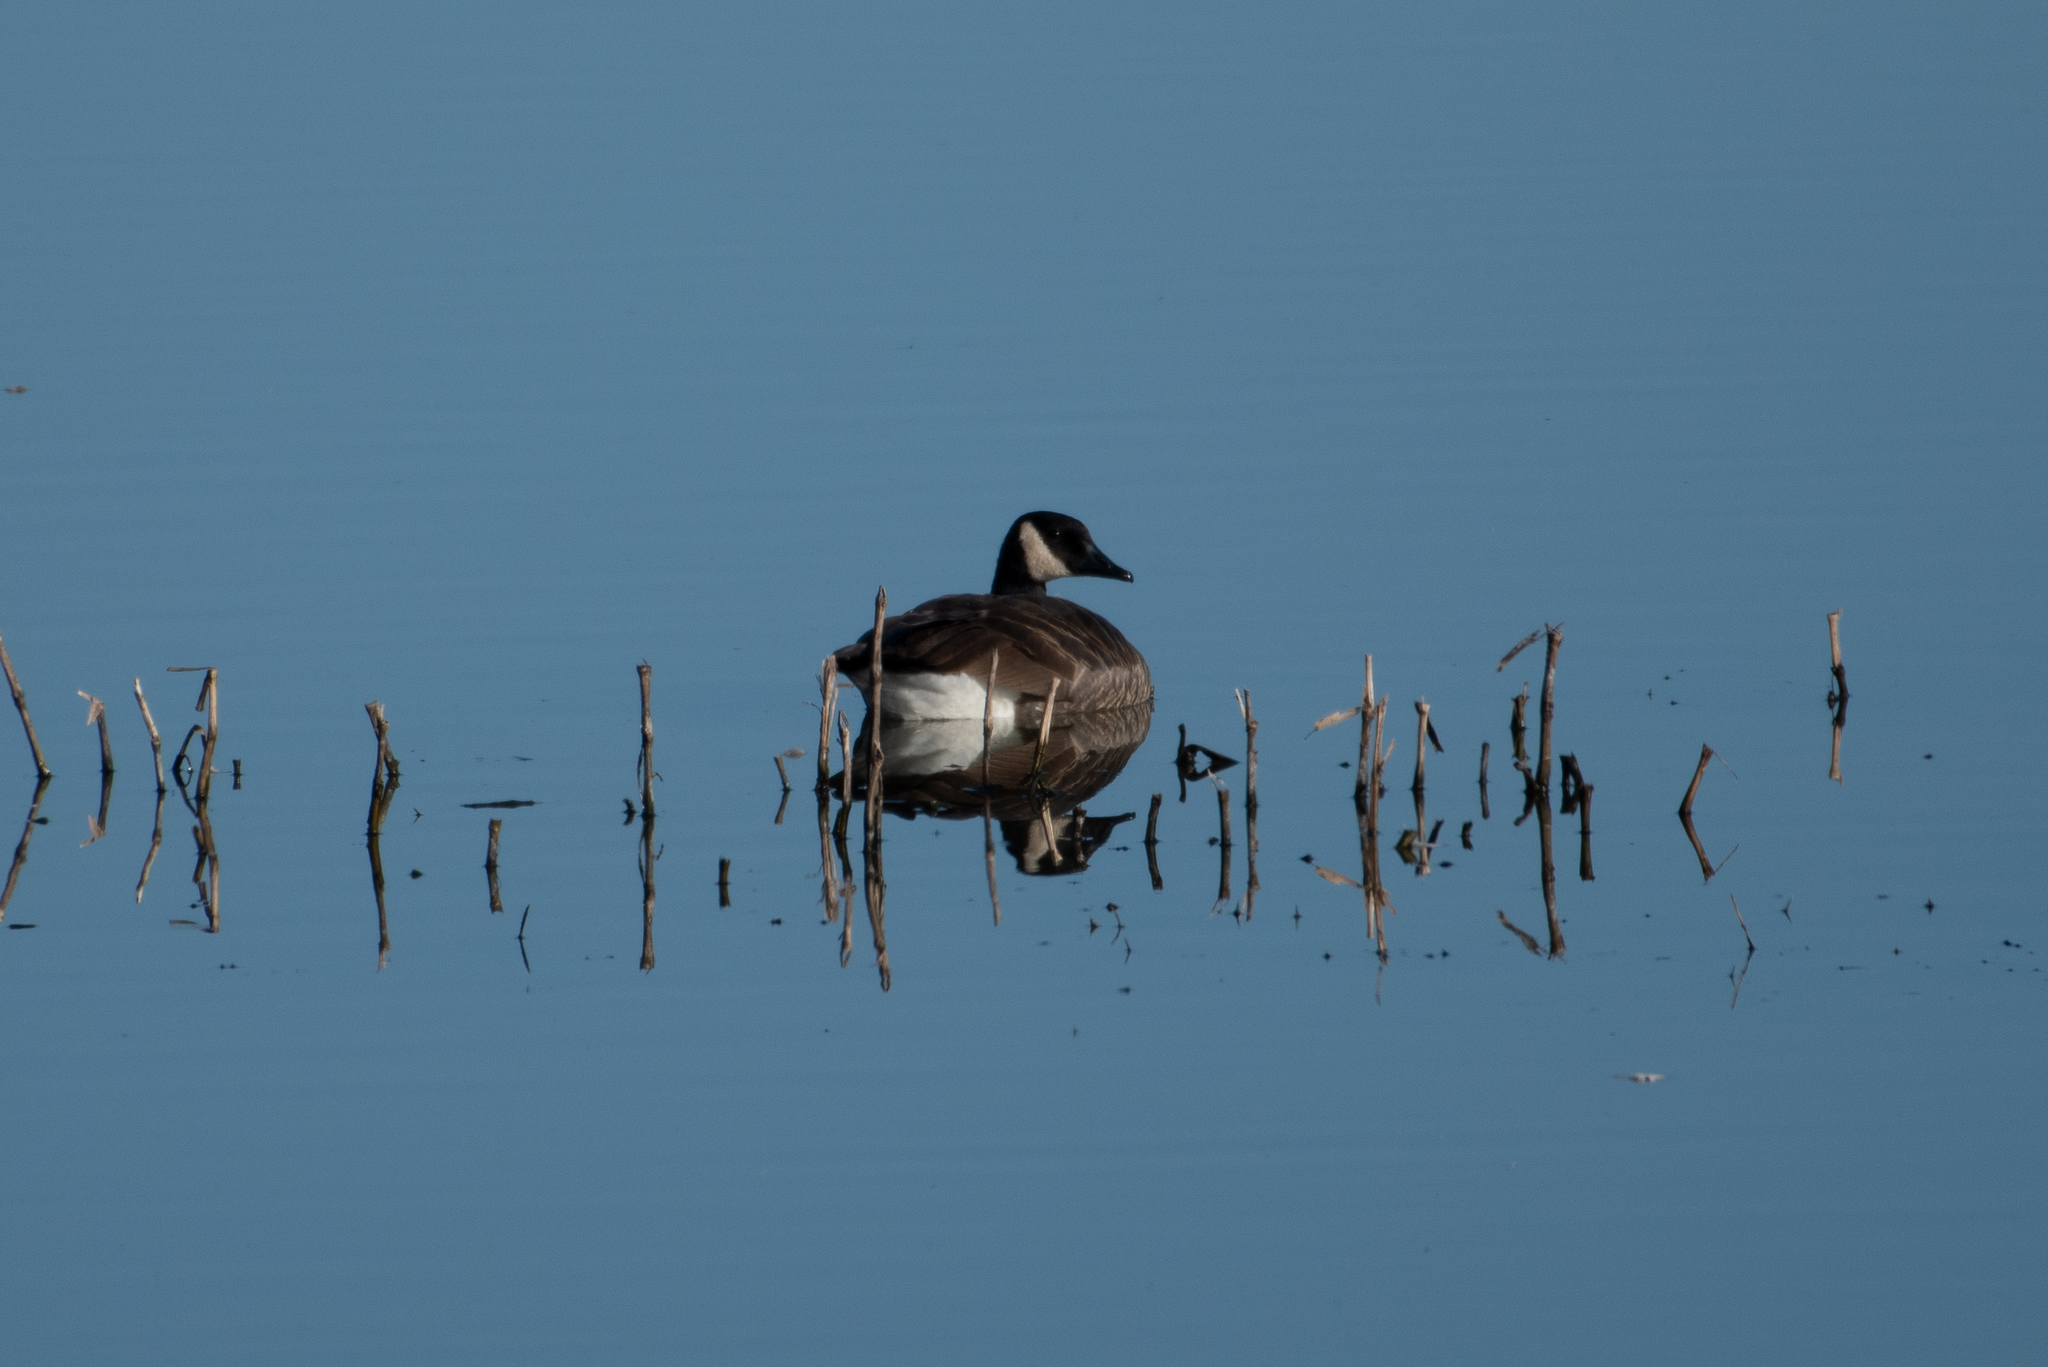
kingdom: Animalia
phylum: Chordata
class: Aves
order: Anseriformes
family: Anatidae
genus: Branta
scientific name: Branta canadensis
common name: Canada goose
